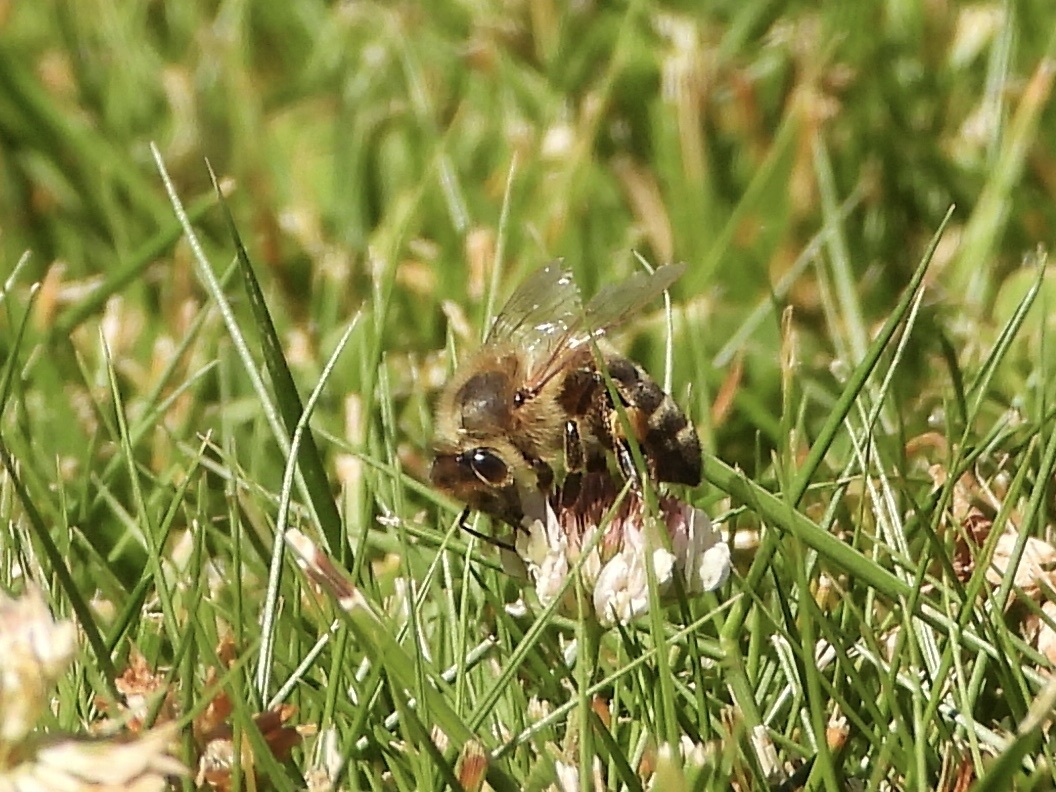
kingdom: Animalia
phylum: Arthropoda
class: Insecta
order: Hymenoptera
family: Apidae
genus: Apis
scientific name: Apis mellifera
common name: Honey bee
